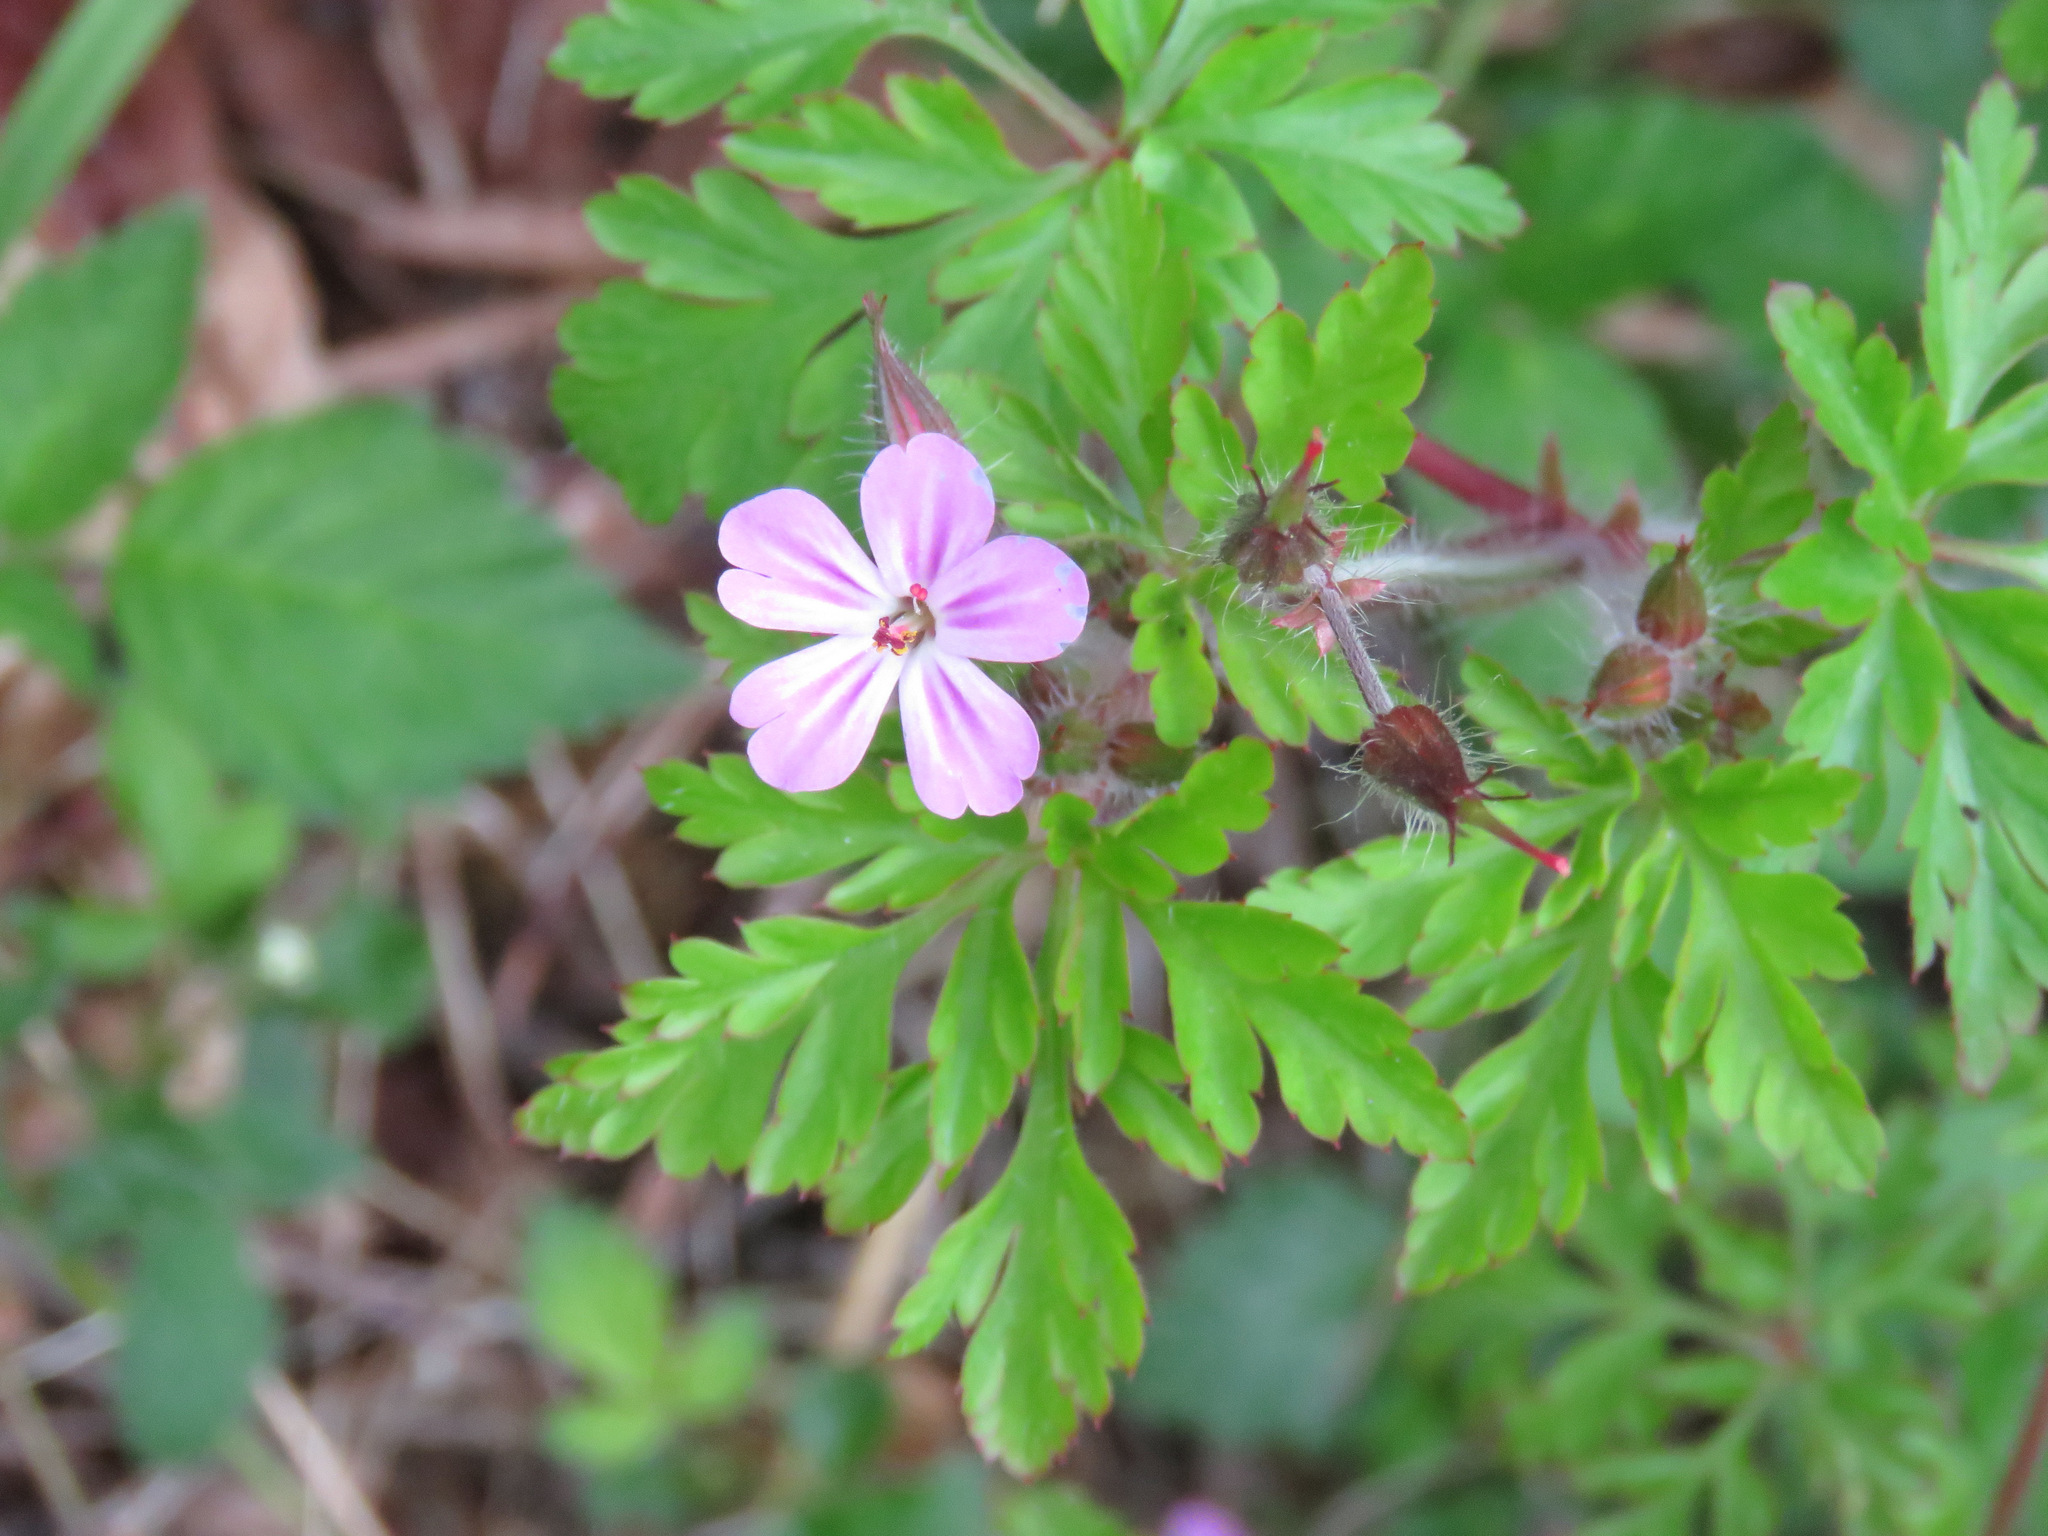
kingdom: Plantae
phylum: Tracheophyta
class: Magnoliopsida
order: Geraniales
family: Geraniaceae
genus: Geranium
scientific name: Geranium robertianum
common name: Herb-robert
